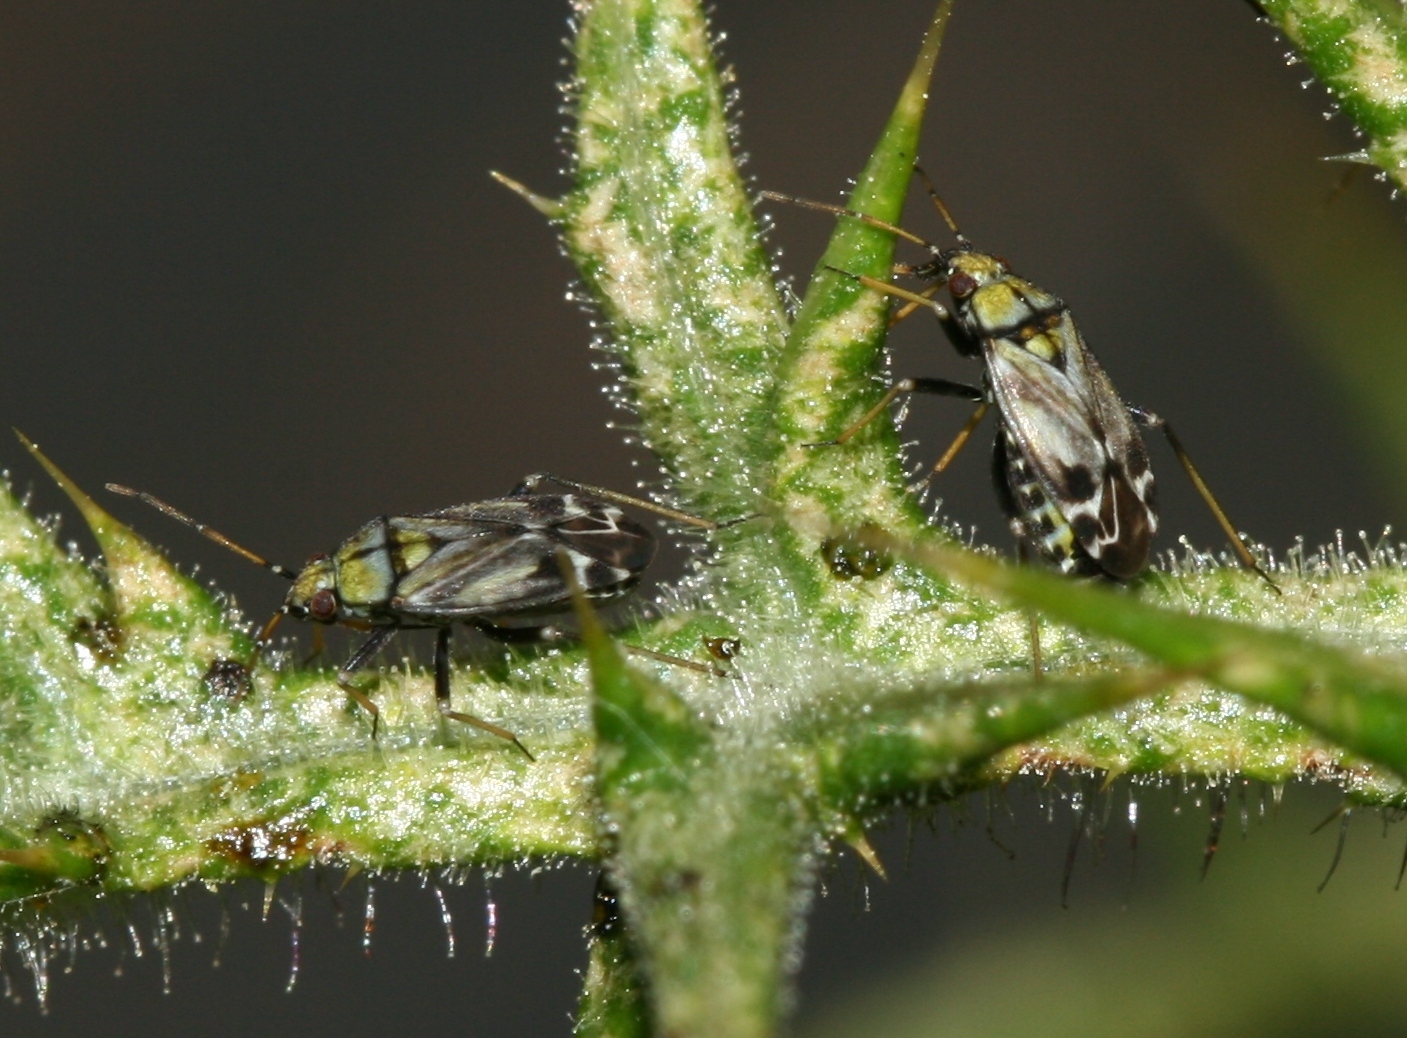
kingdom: Animalia
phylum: Arthropoda
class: Insecta
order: Hemiptera
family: Miridae
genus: Macrotylus
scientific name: Macrotylus perdictus
